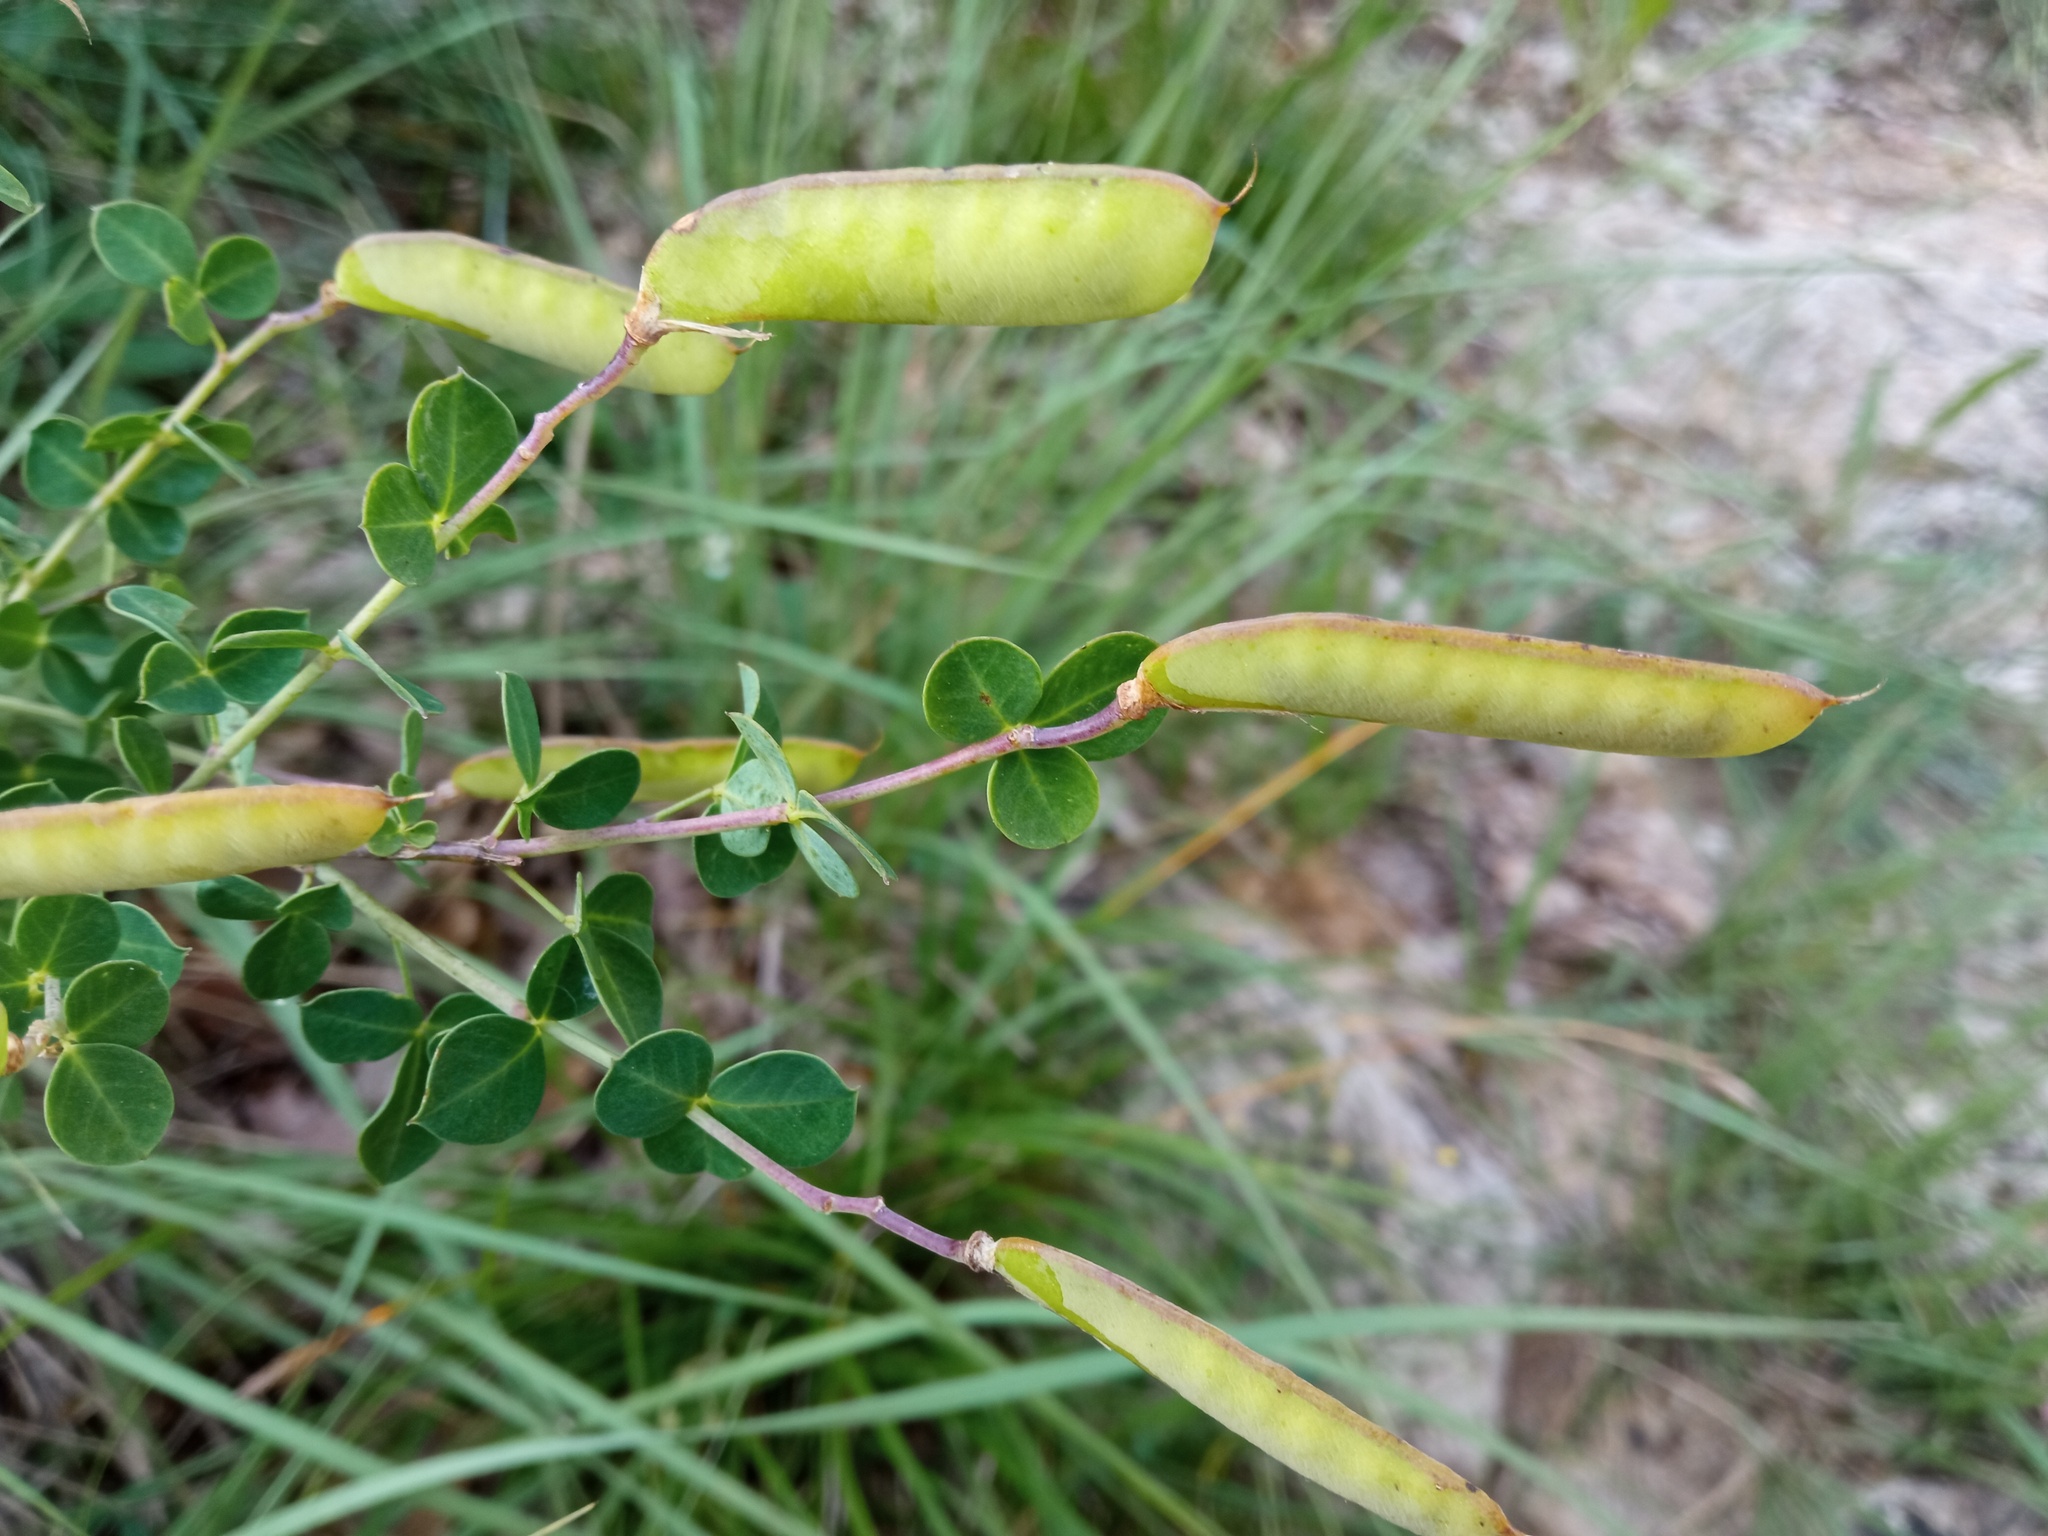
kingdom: Plantae
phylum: Tracheophyta
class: Magnoliopsida
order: Fabales
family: Fabaceae
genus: Cytisophyllum
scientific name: Cytisophyllum sessilifolium
